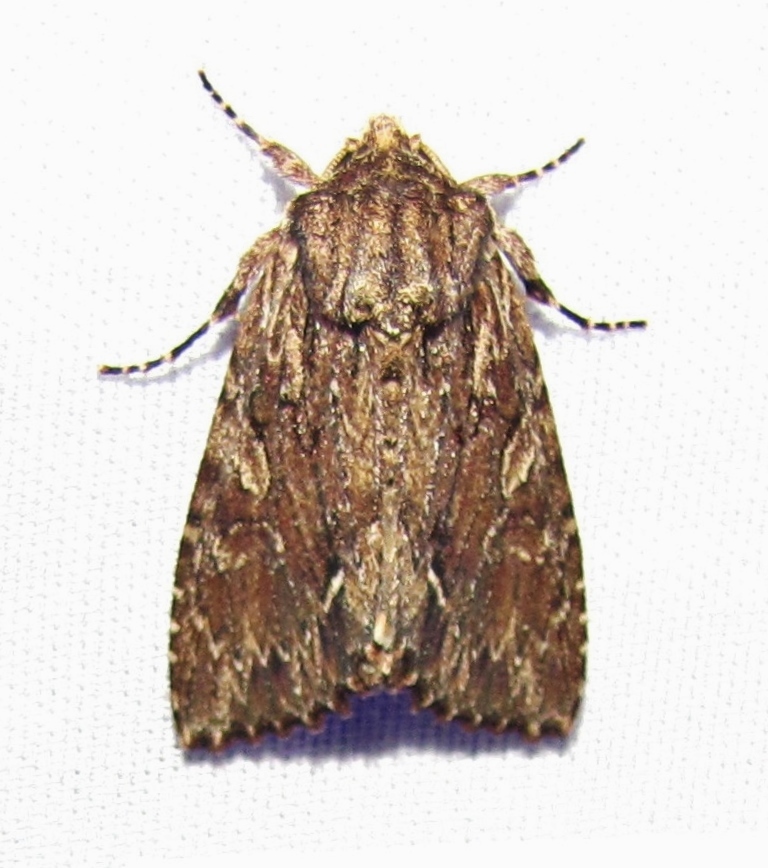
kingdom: Animalia
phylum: Arthropoda
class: Insecta
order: Lepidoptera
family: Noctuidae
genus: Achatia
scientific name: Achatia confusa
